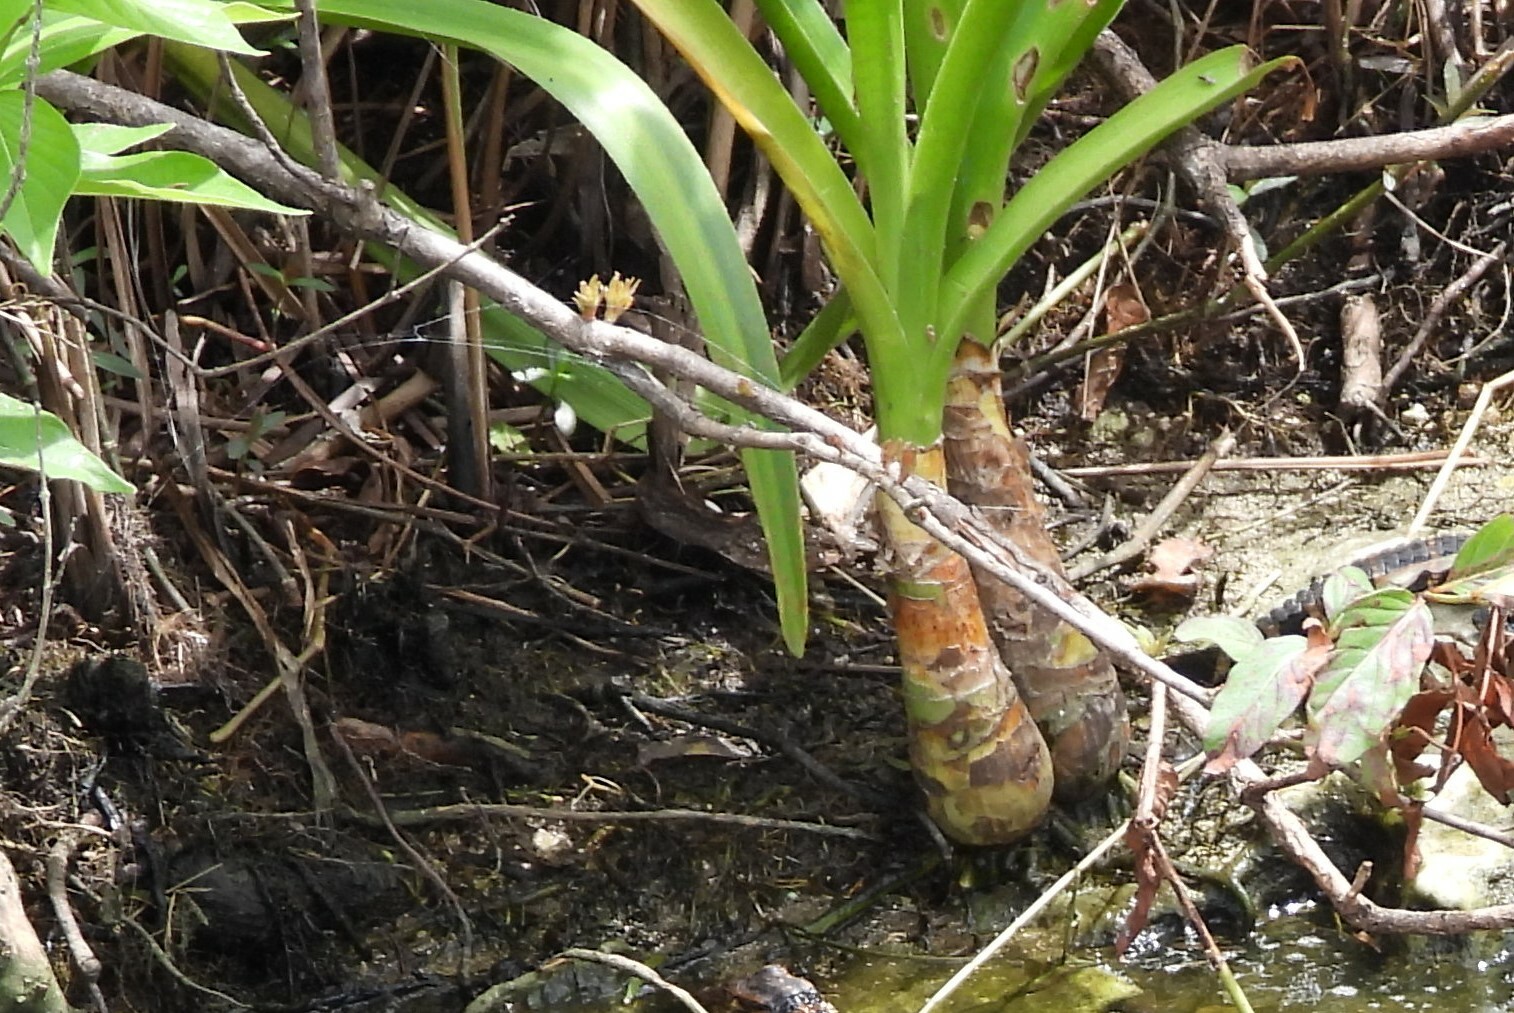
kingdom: Plantae
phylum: Tracheophyta
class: Liliopsida
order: Asparagales
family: Amaryllidaceae
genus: Crinum
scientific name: Crinum americanum
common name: Florida swamp-lily
